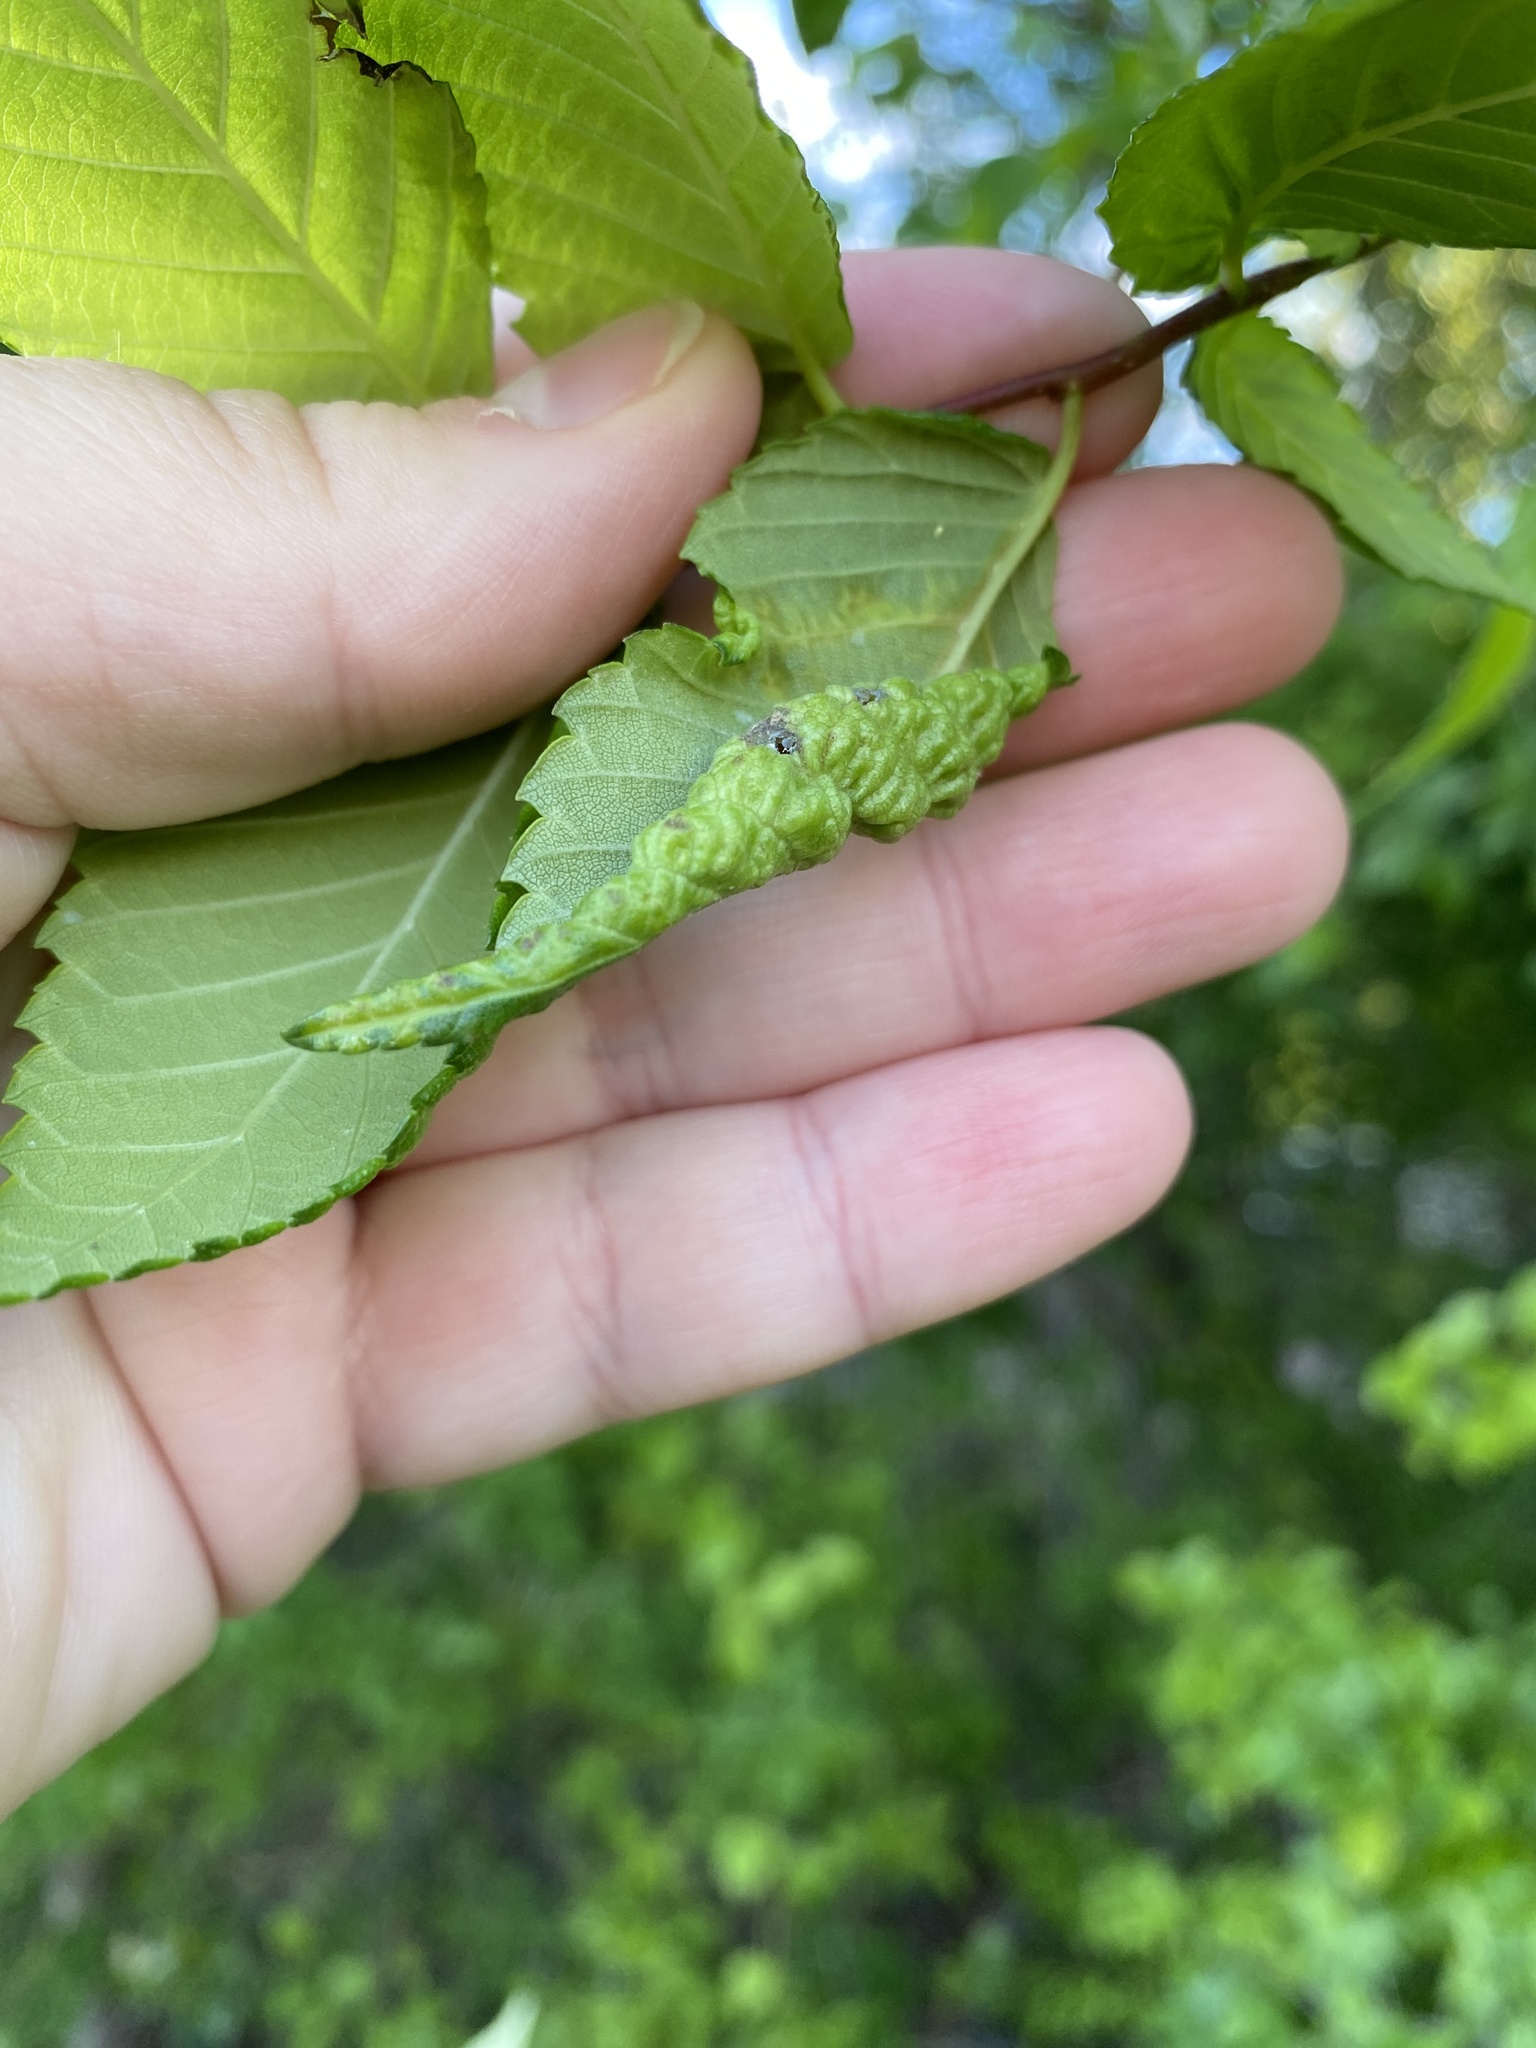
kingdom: Animalia
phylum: Arthropoda
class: Insecta
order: Hemiptera
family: Aphididae
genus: Eriosoma
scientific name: Eriosoma americanum
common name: Woolly elm aphid
